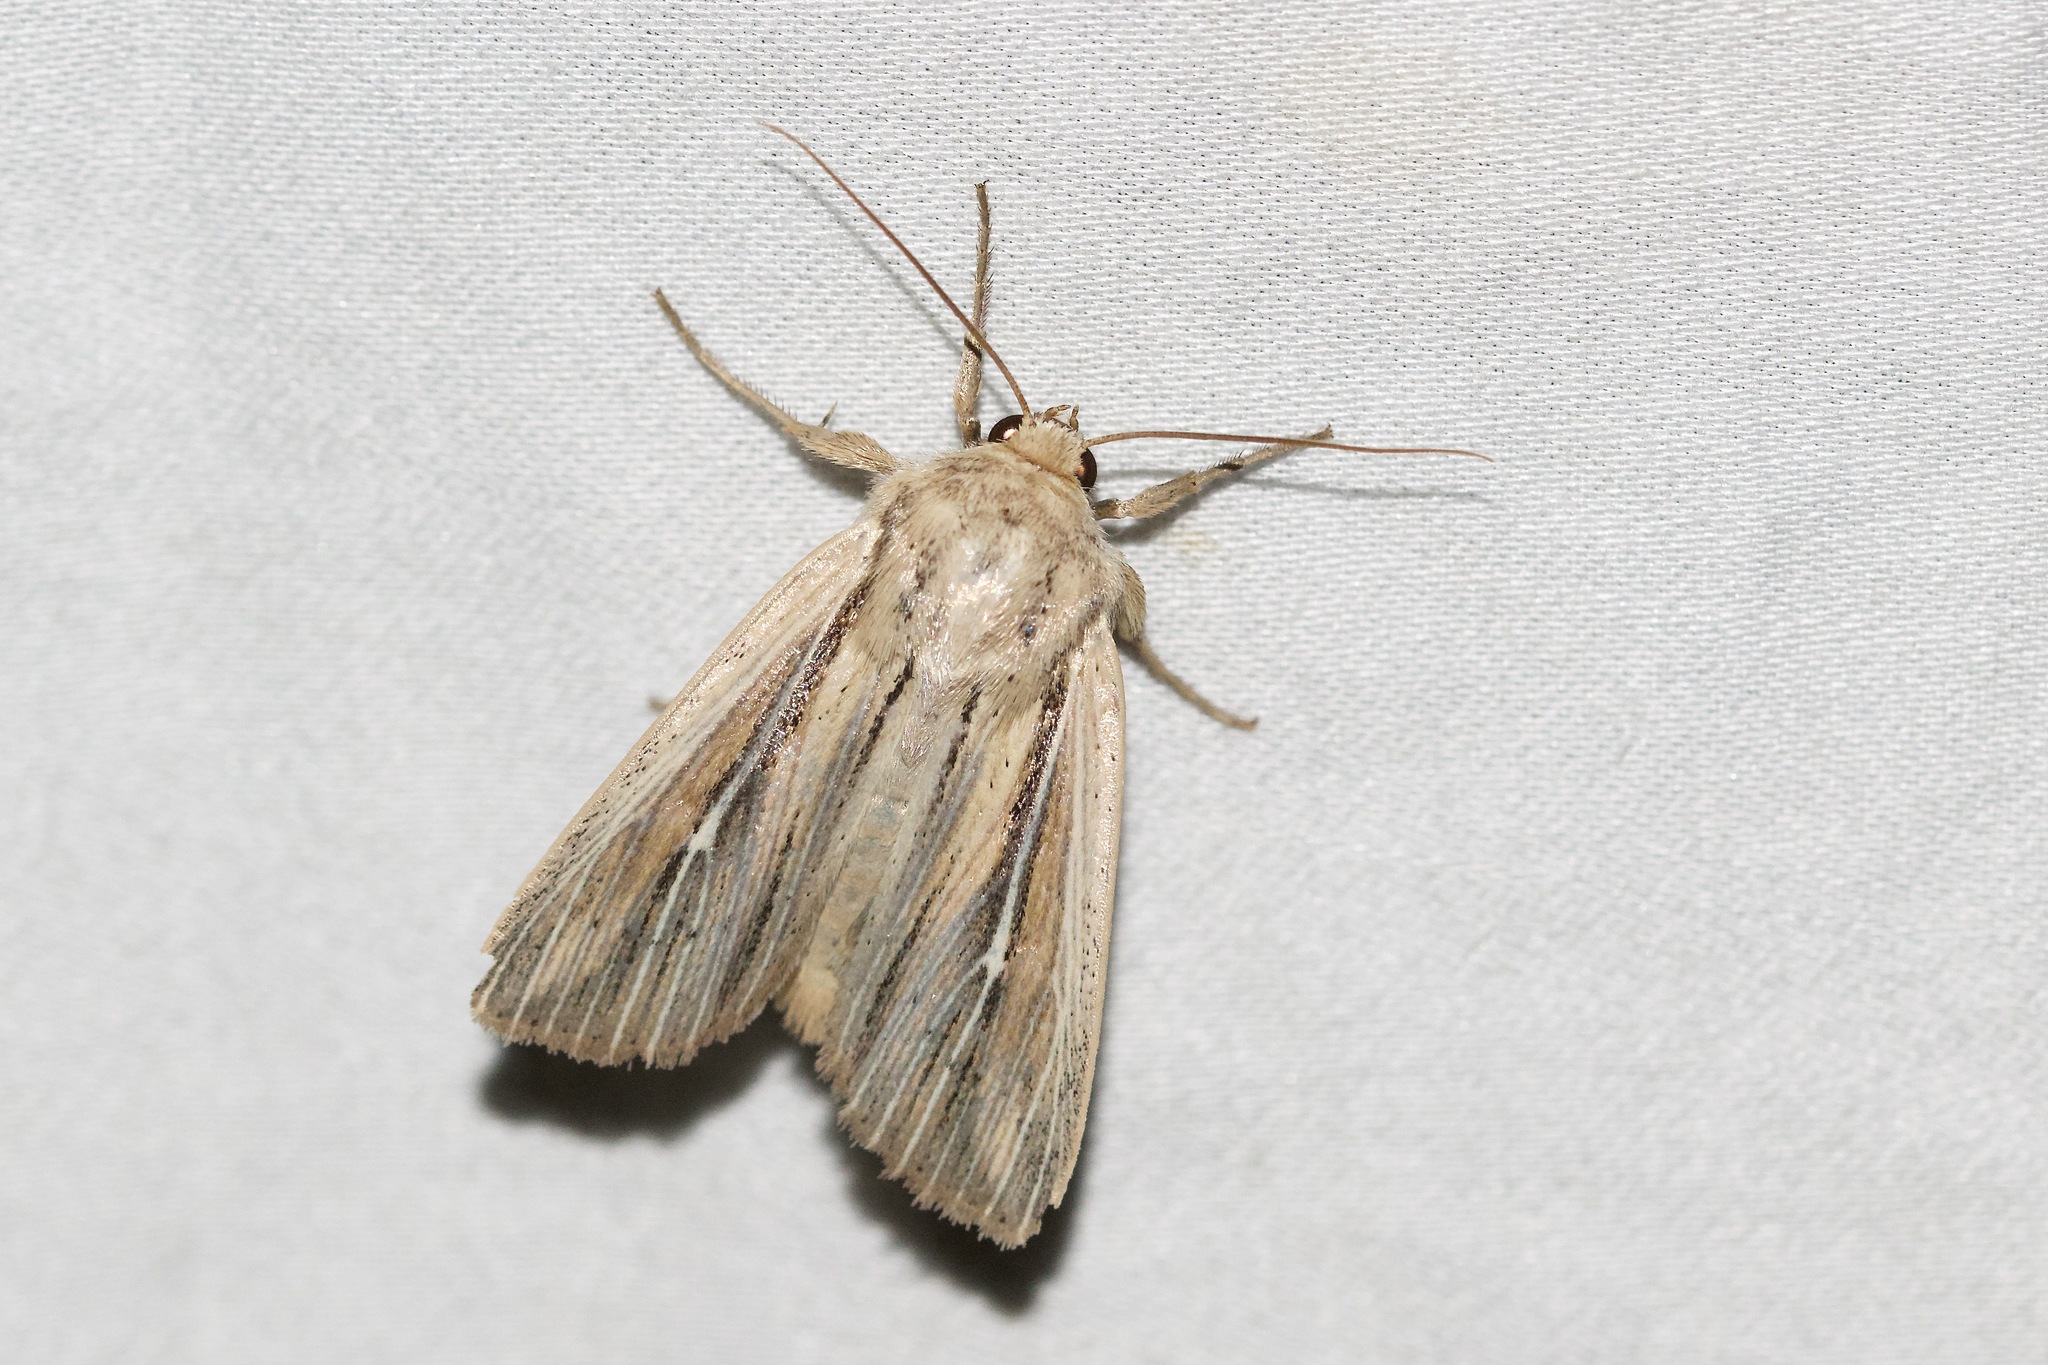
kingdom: Animalia
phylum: Arthropoda
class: Insecta
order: Lepidoptera
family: Noctuidae
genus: Leucania
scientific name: Leucania commoides
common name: Two-lined wainscot
